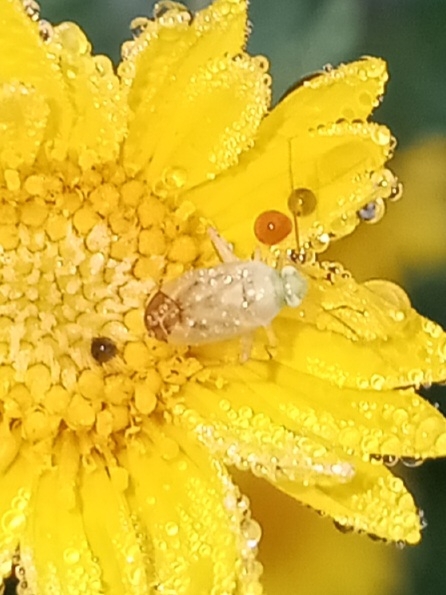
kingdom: Animalia
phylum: Arthropoda
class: Insecta
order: Hemiptera
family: Miridae
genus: Pseudatomoscelis
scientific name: Pseudatomoscelis seriatus
